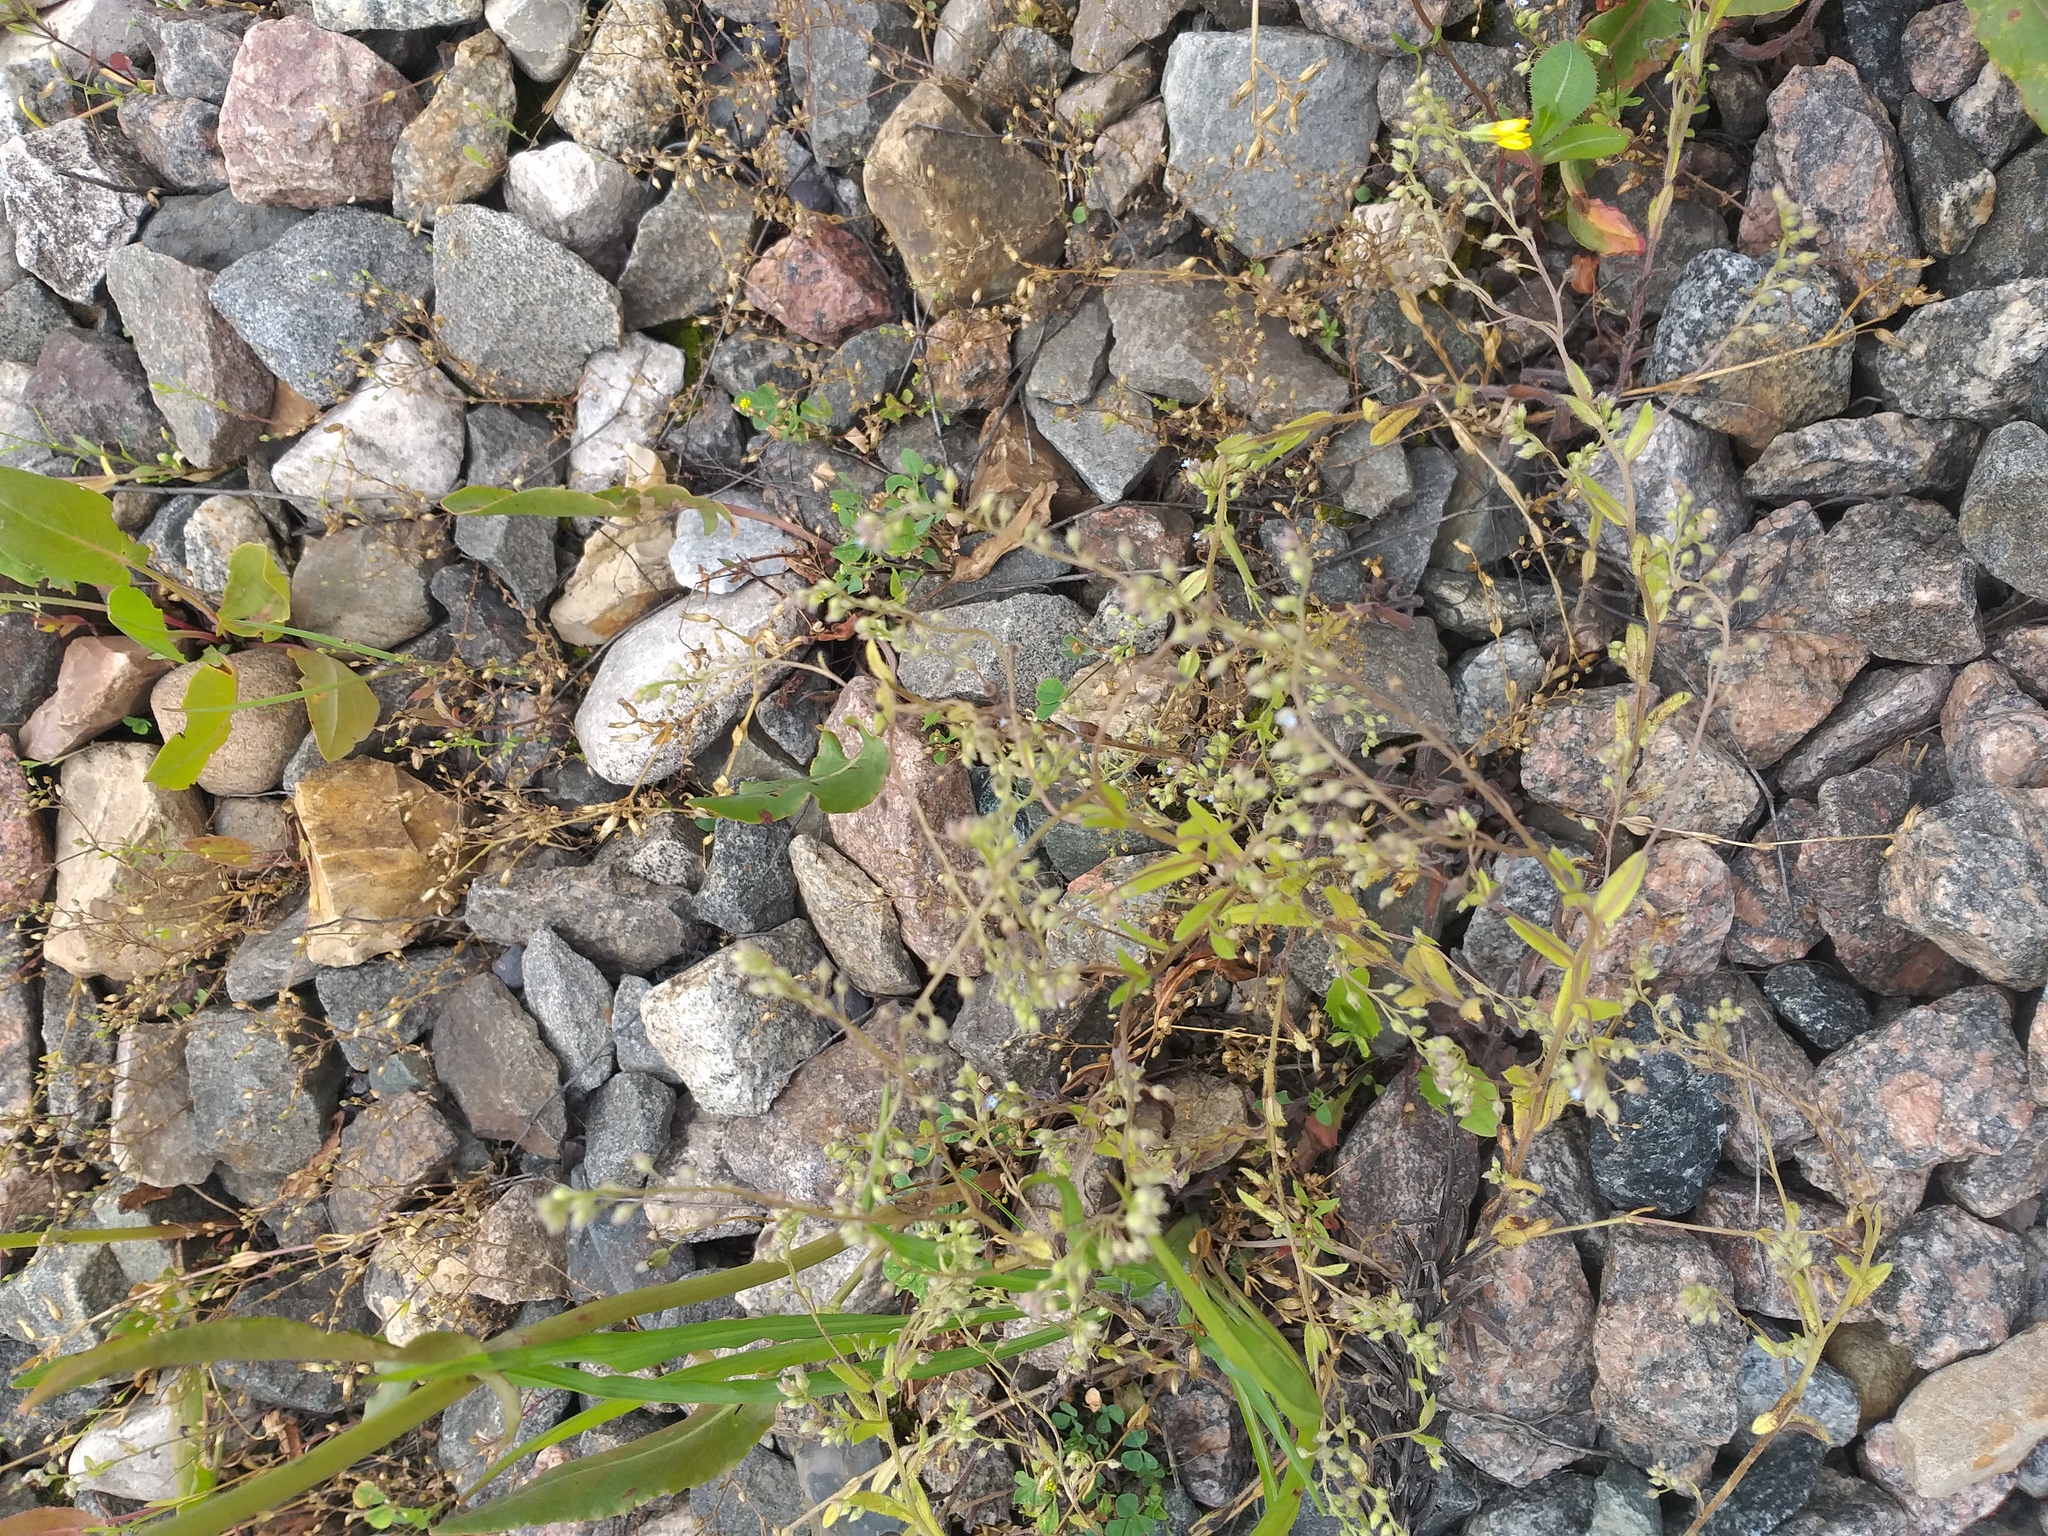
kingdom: Plantae
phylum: Tracheophyta
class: Magnoliopsida
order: Boraginales
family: Boraginaceae
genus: Myosotis
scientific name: Myosotis arvensis
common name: Field forget-me-not
